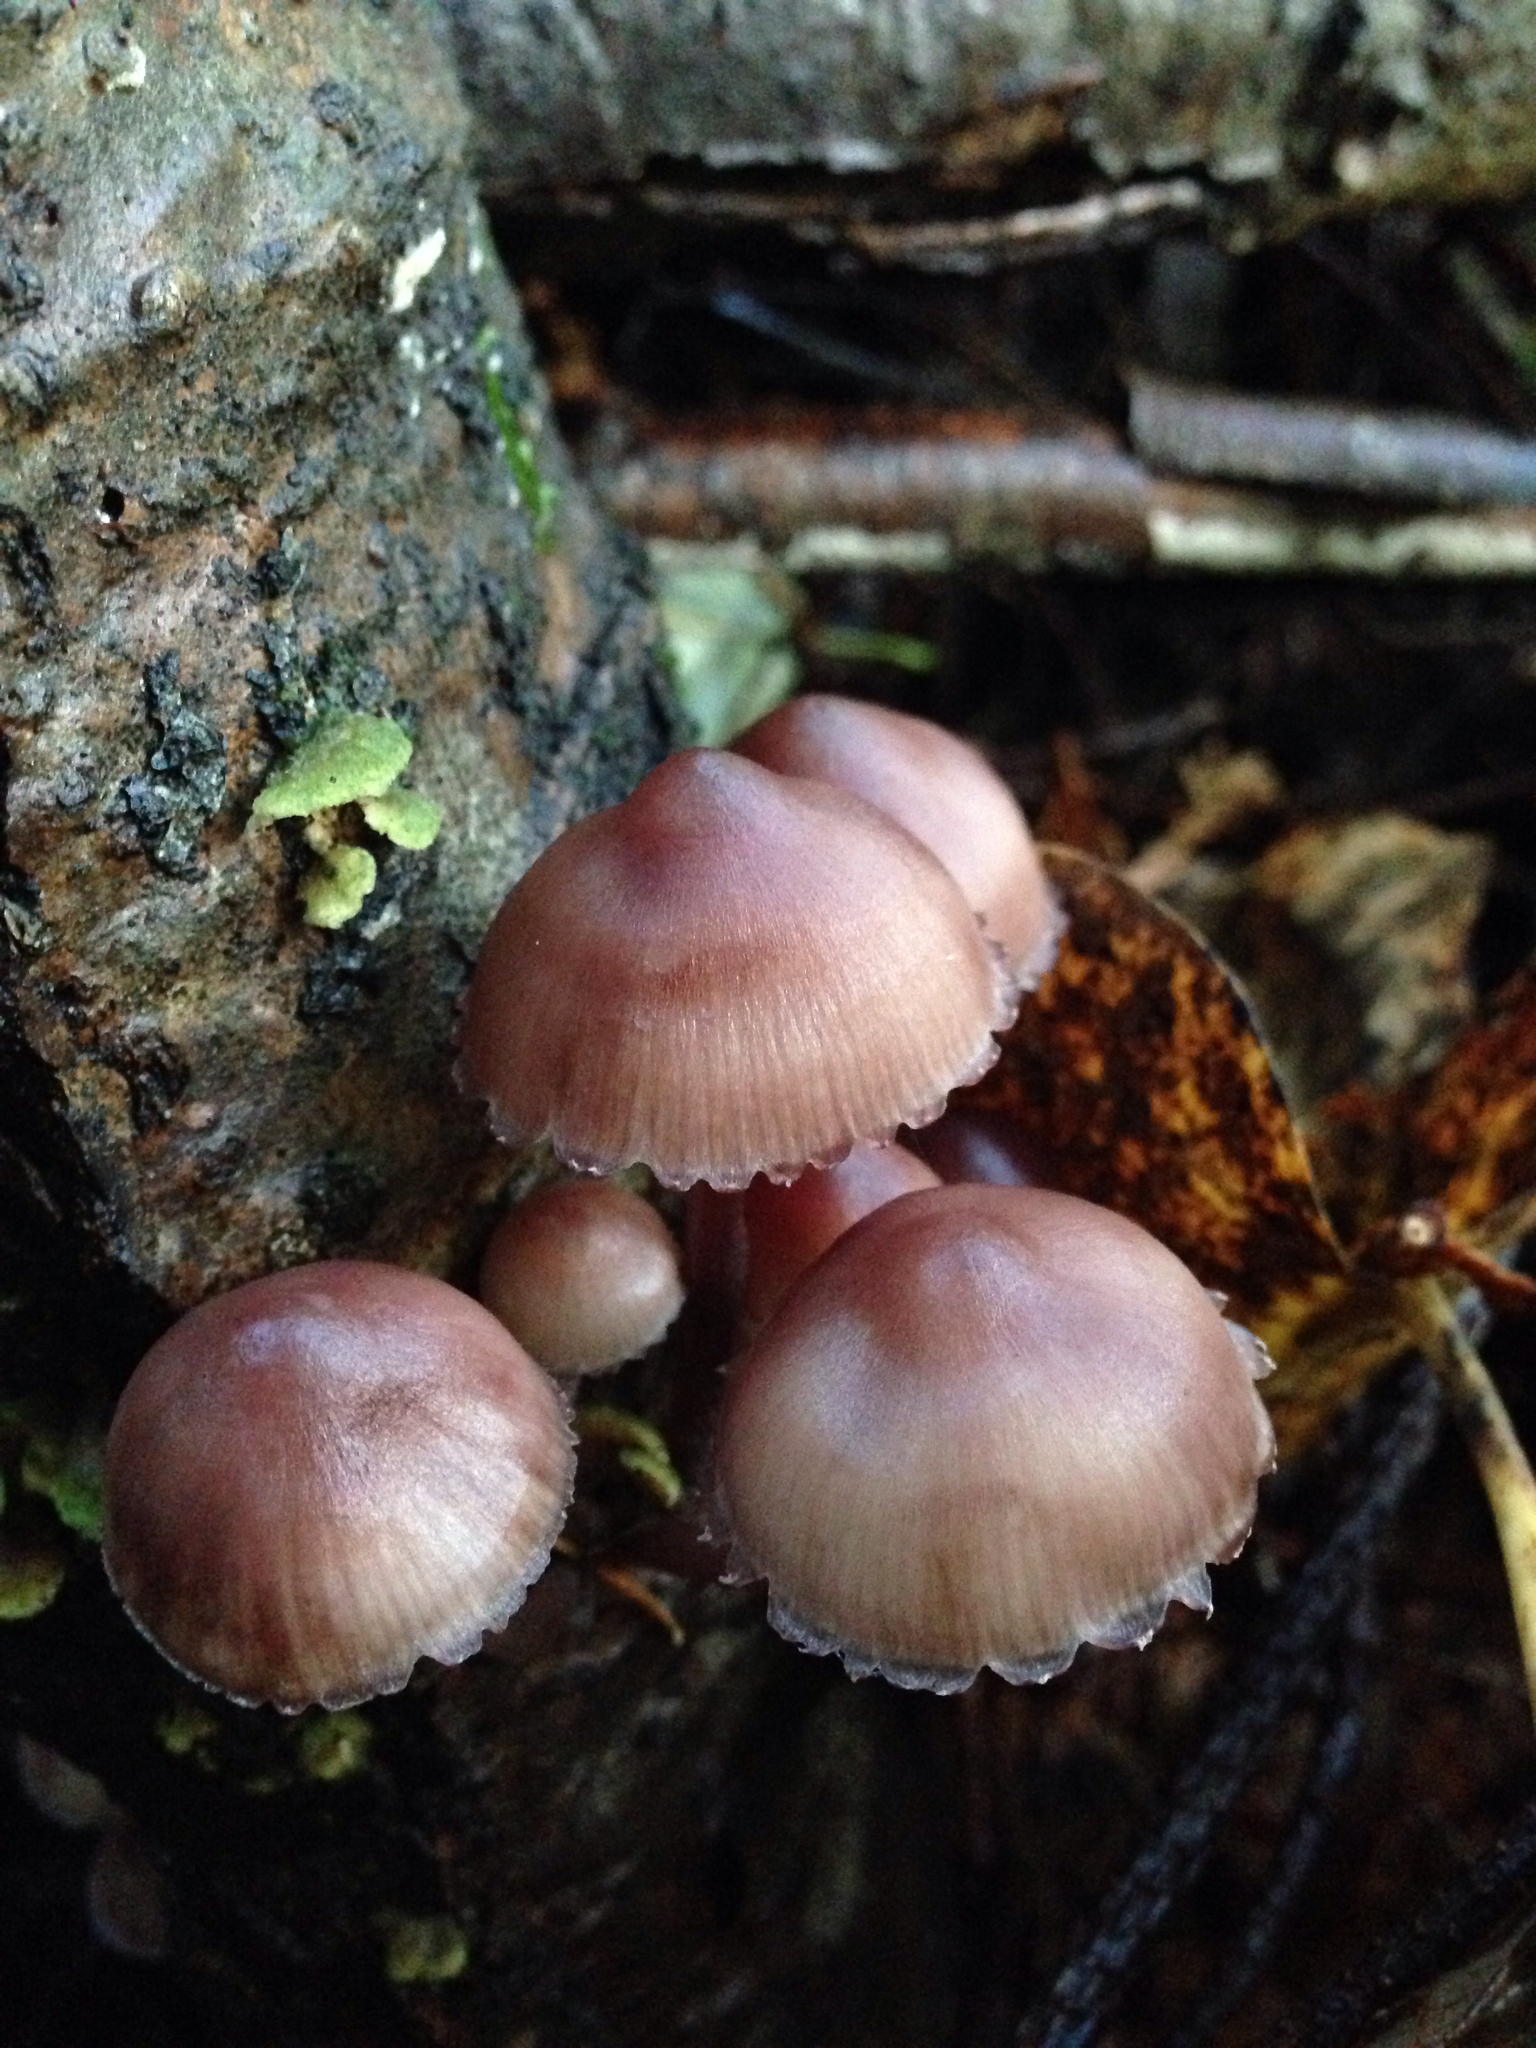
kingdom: Fungi
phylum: Basidiomycota
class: Agaricomycetes
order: Agaricales
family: Mycenaceae
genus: Mycena
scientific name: Mycena haematopus
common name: Burgundydrop bonnet
